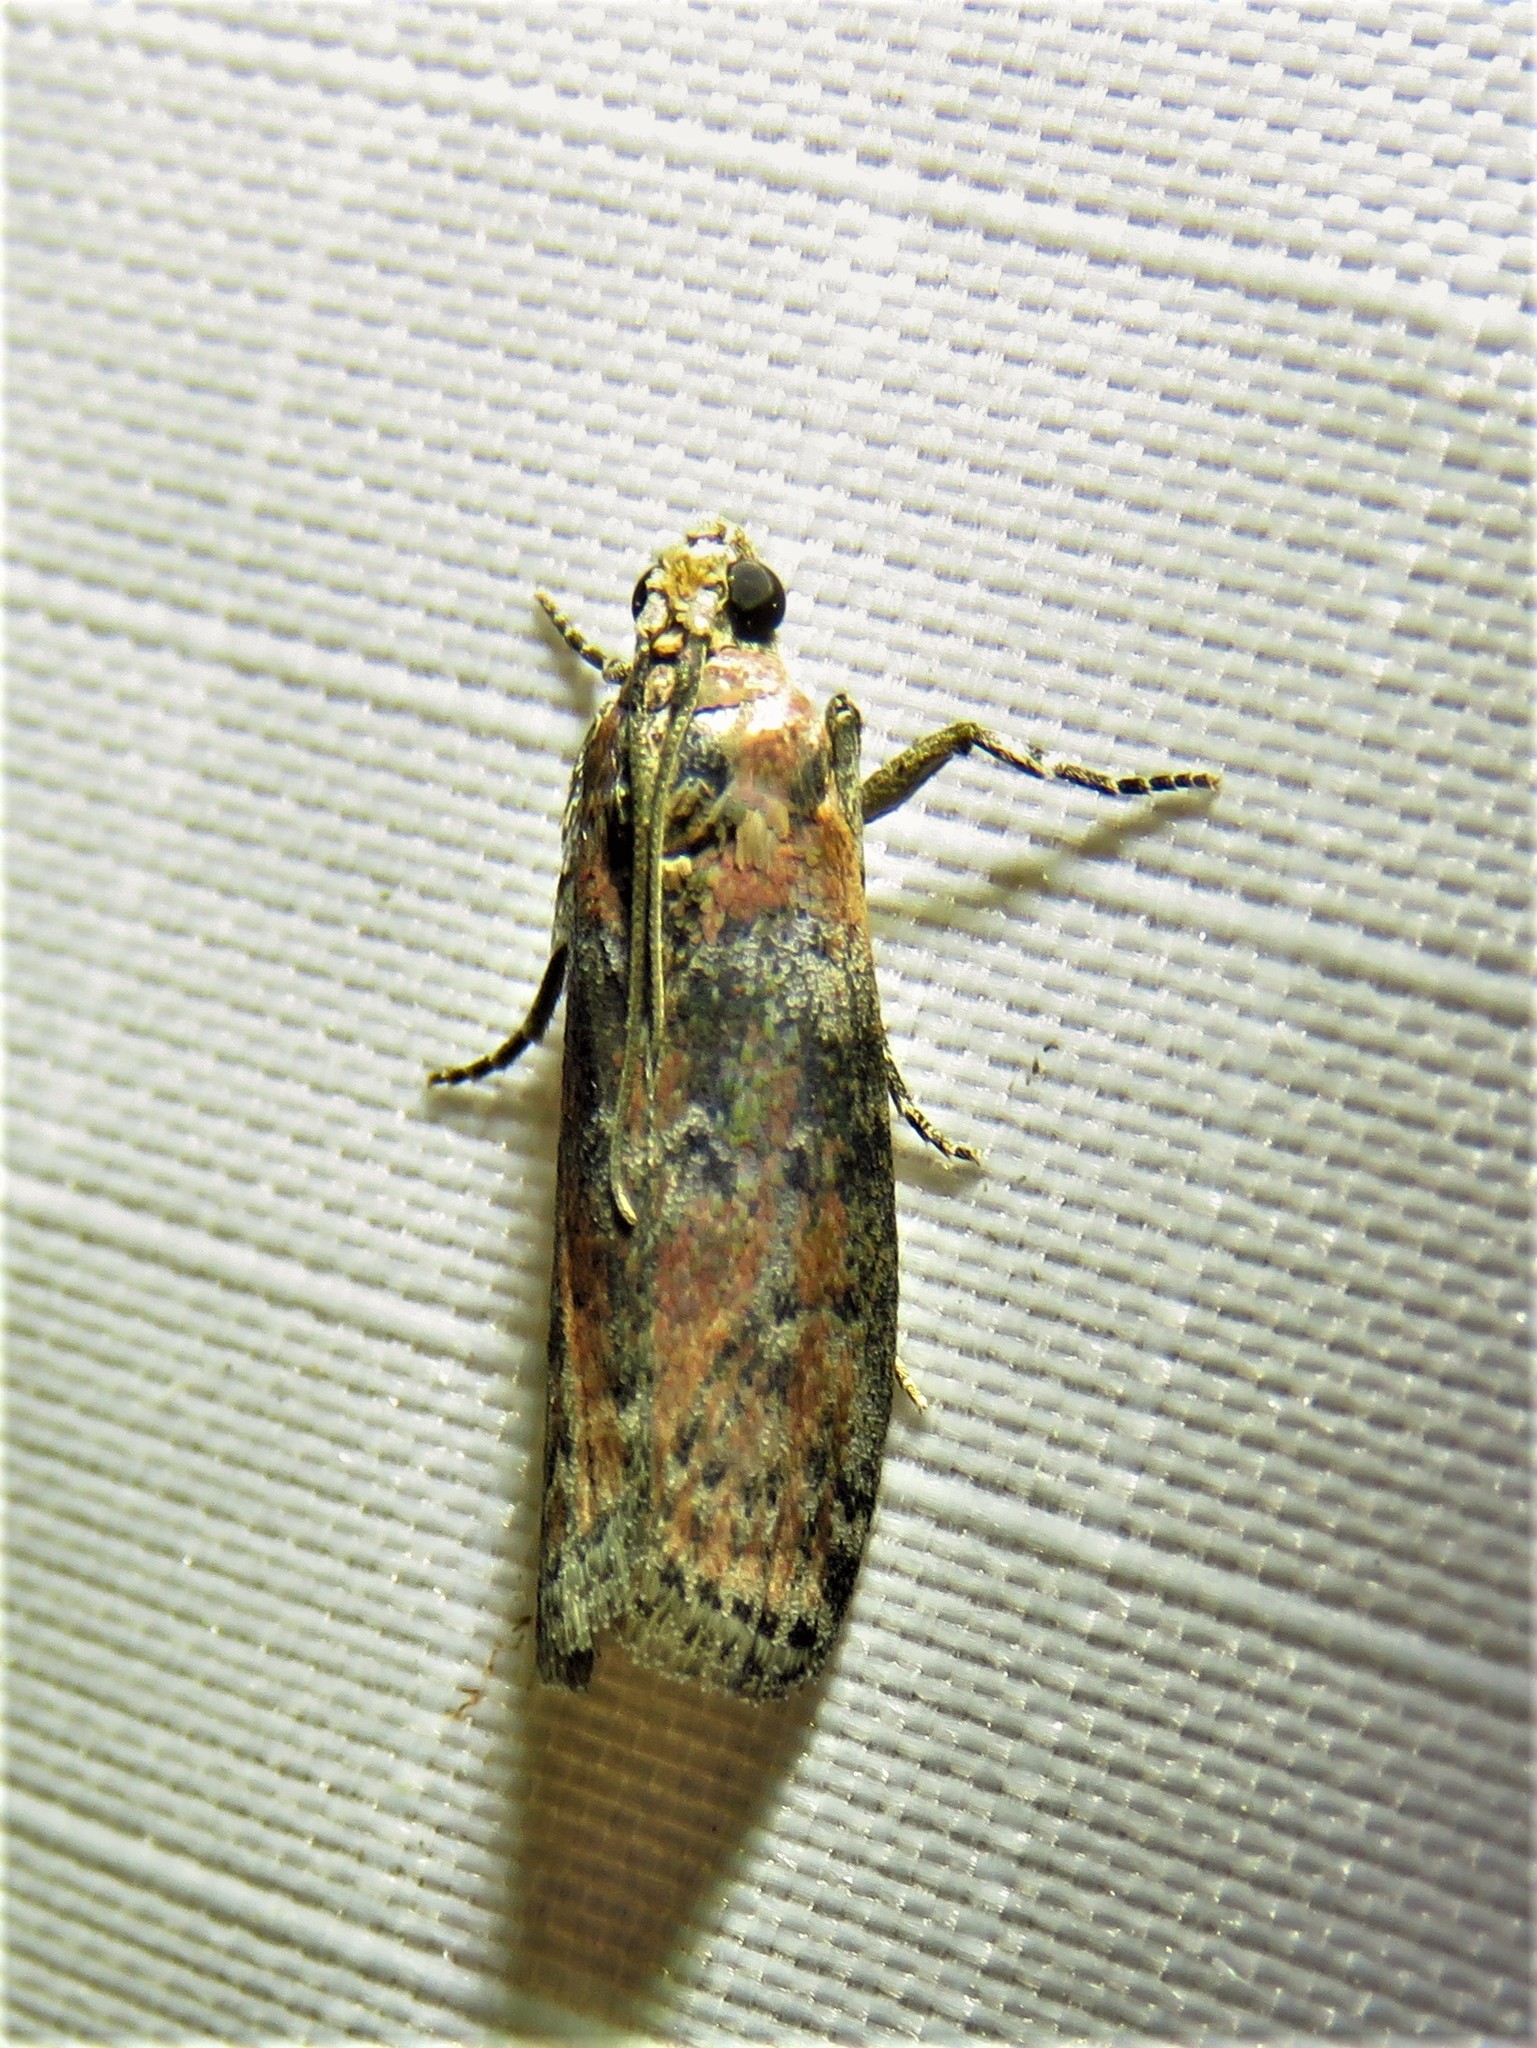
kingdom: Animalia
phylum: Arthropoda
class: Insecta
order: Lepidoptera
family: Pyralidae
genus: Sciota
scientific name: Sciota celtidella
